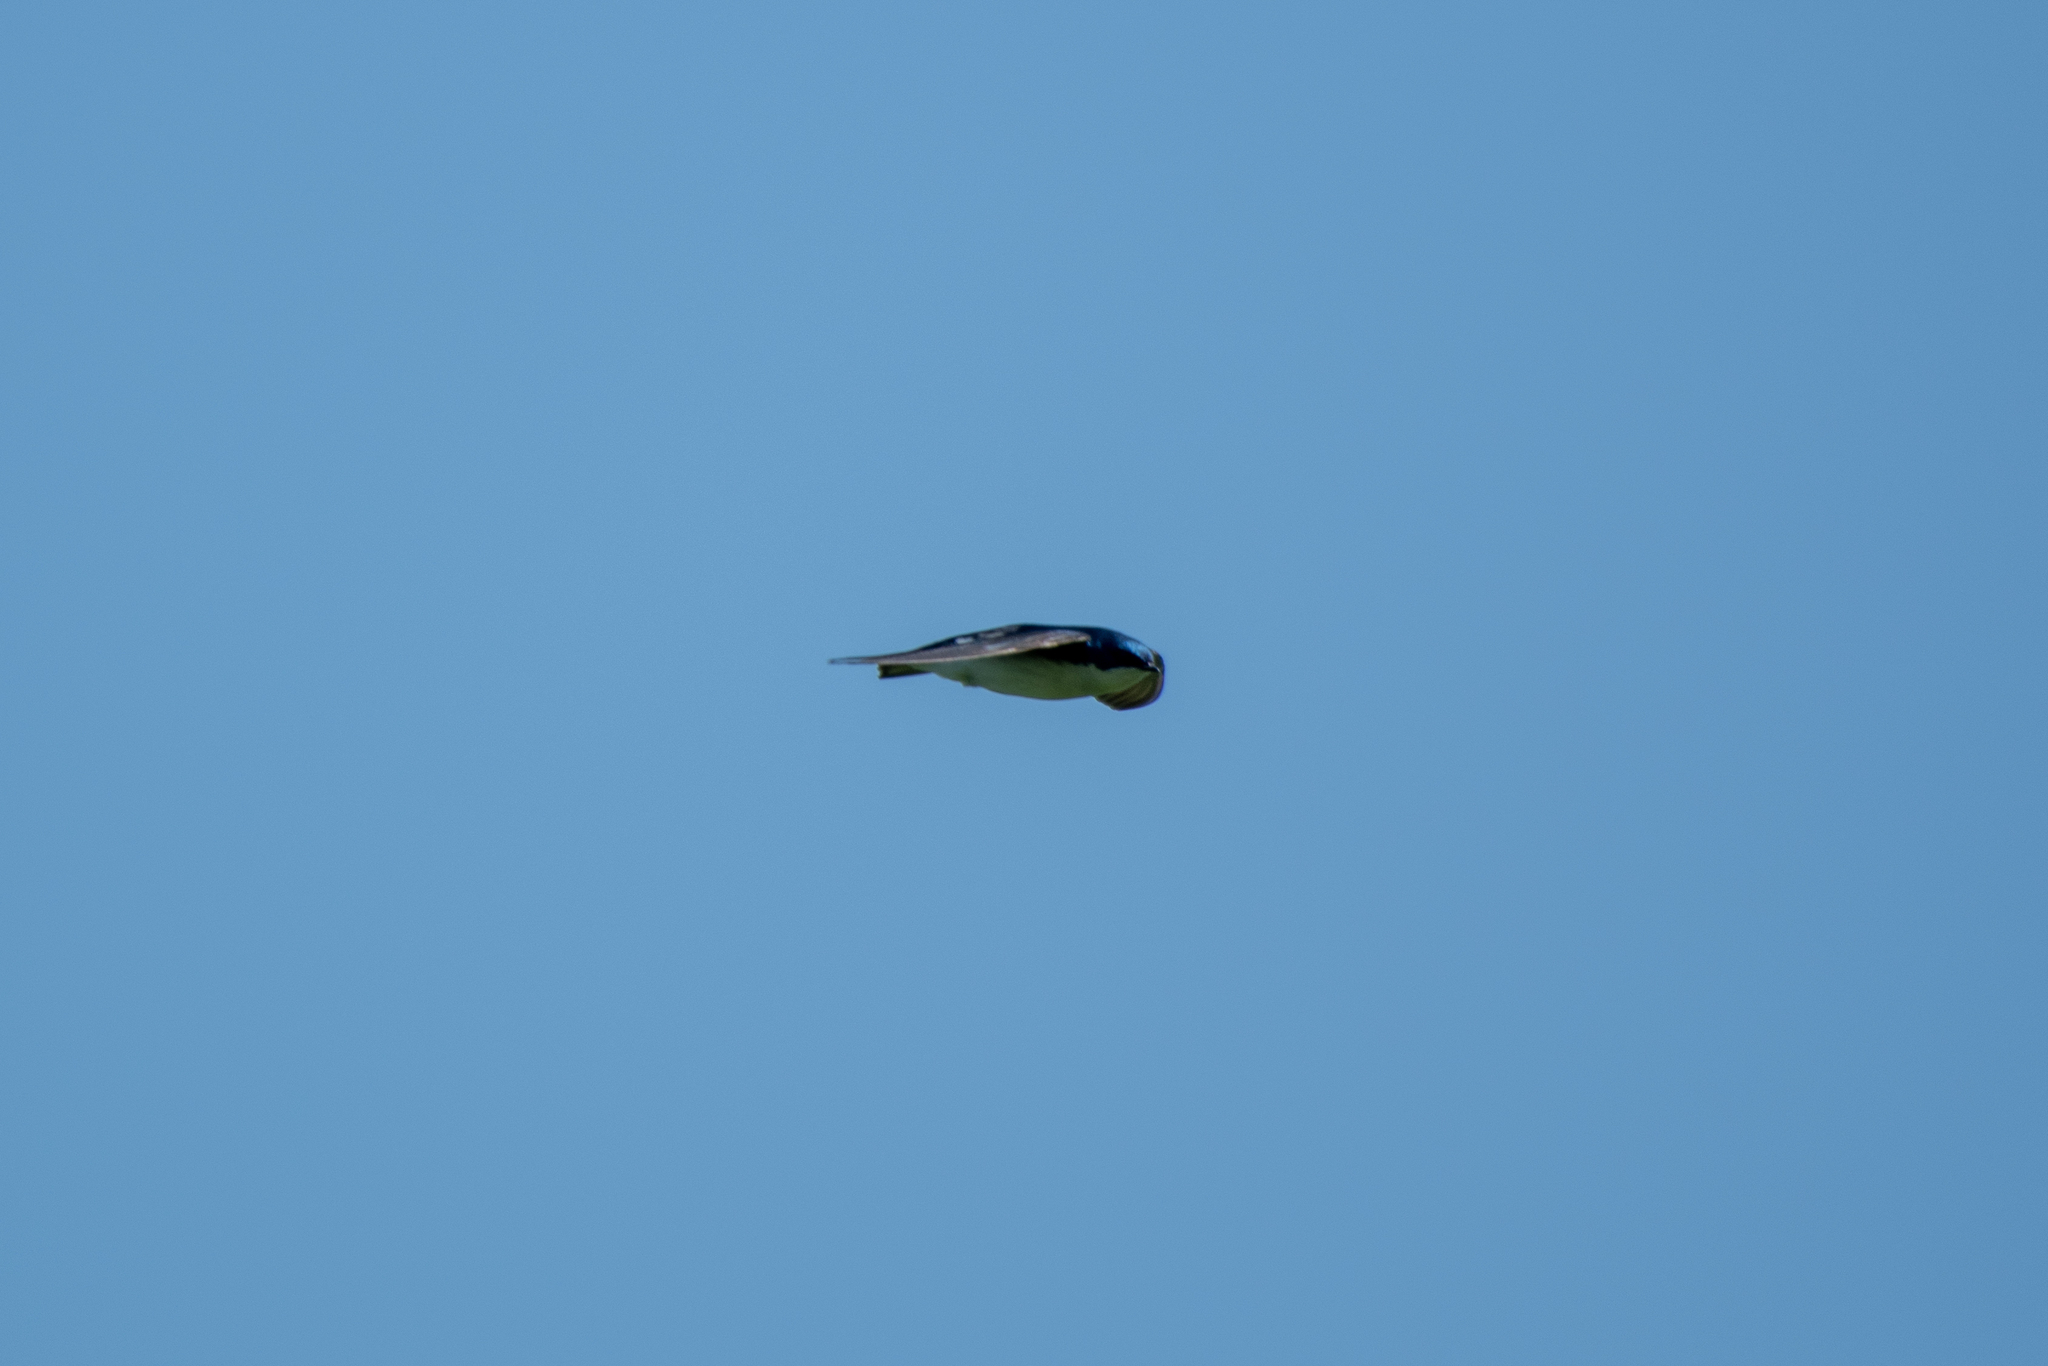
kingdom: Animalia
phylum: Chordata
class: Aves
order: Passeriformes
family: Hirundinidae
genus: Tachycineta
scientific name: Tachycineta bicolor
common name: Tree swallow
